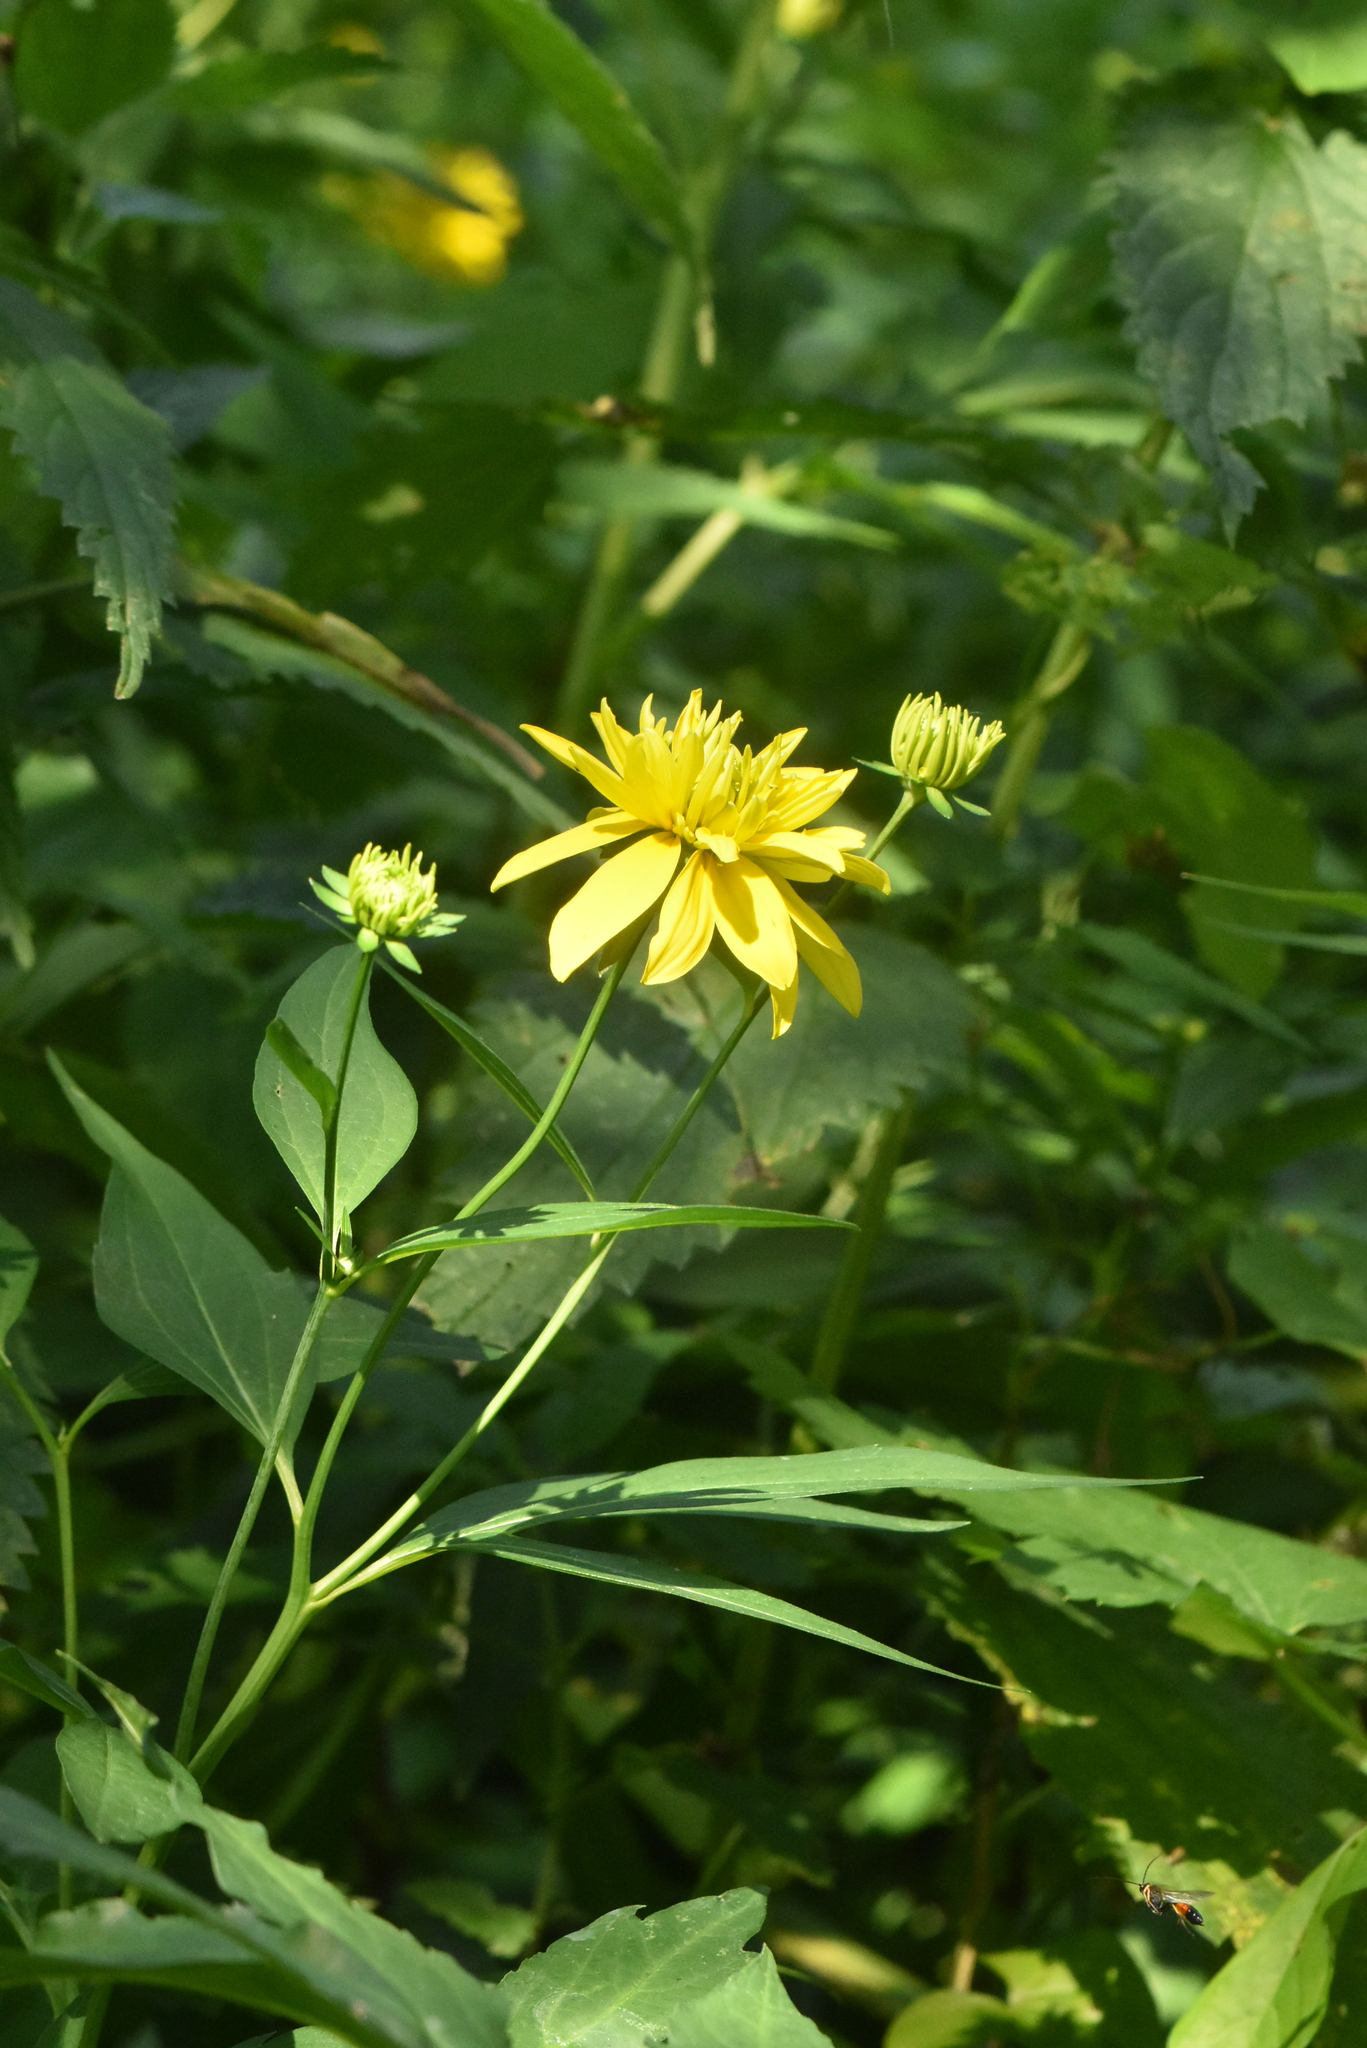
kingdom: Plantae
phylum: Tracheophyta
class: Magnoliopsida
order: Asterales
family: Asteraceae
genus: Rudbeckia
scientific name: Rudbeckia laciniata
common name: Coneflower
